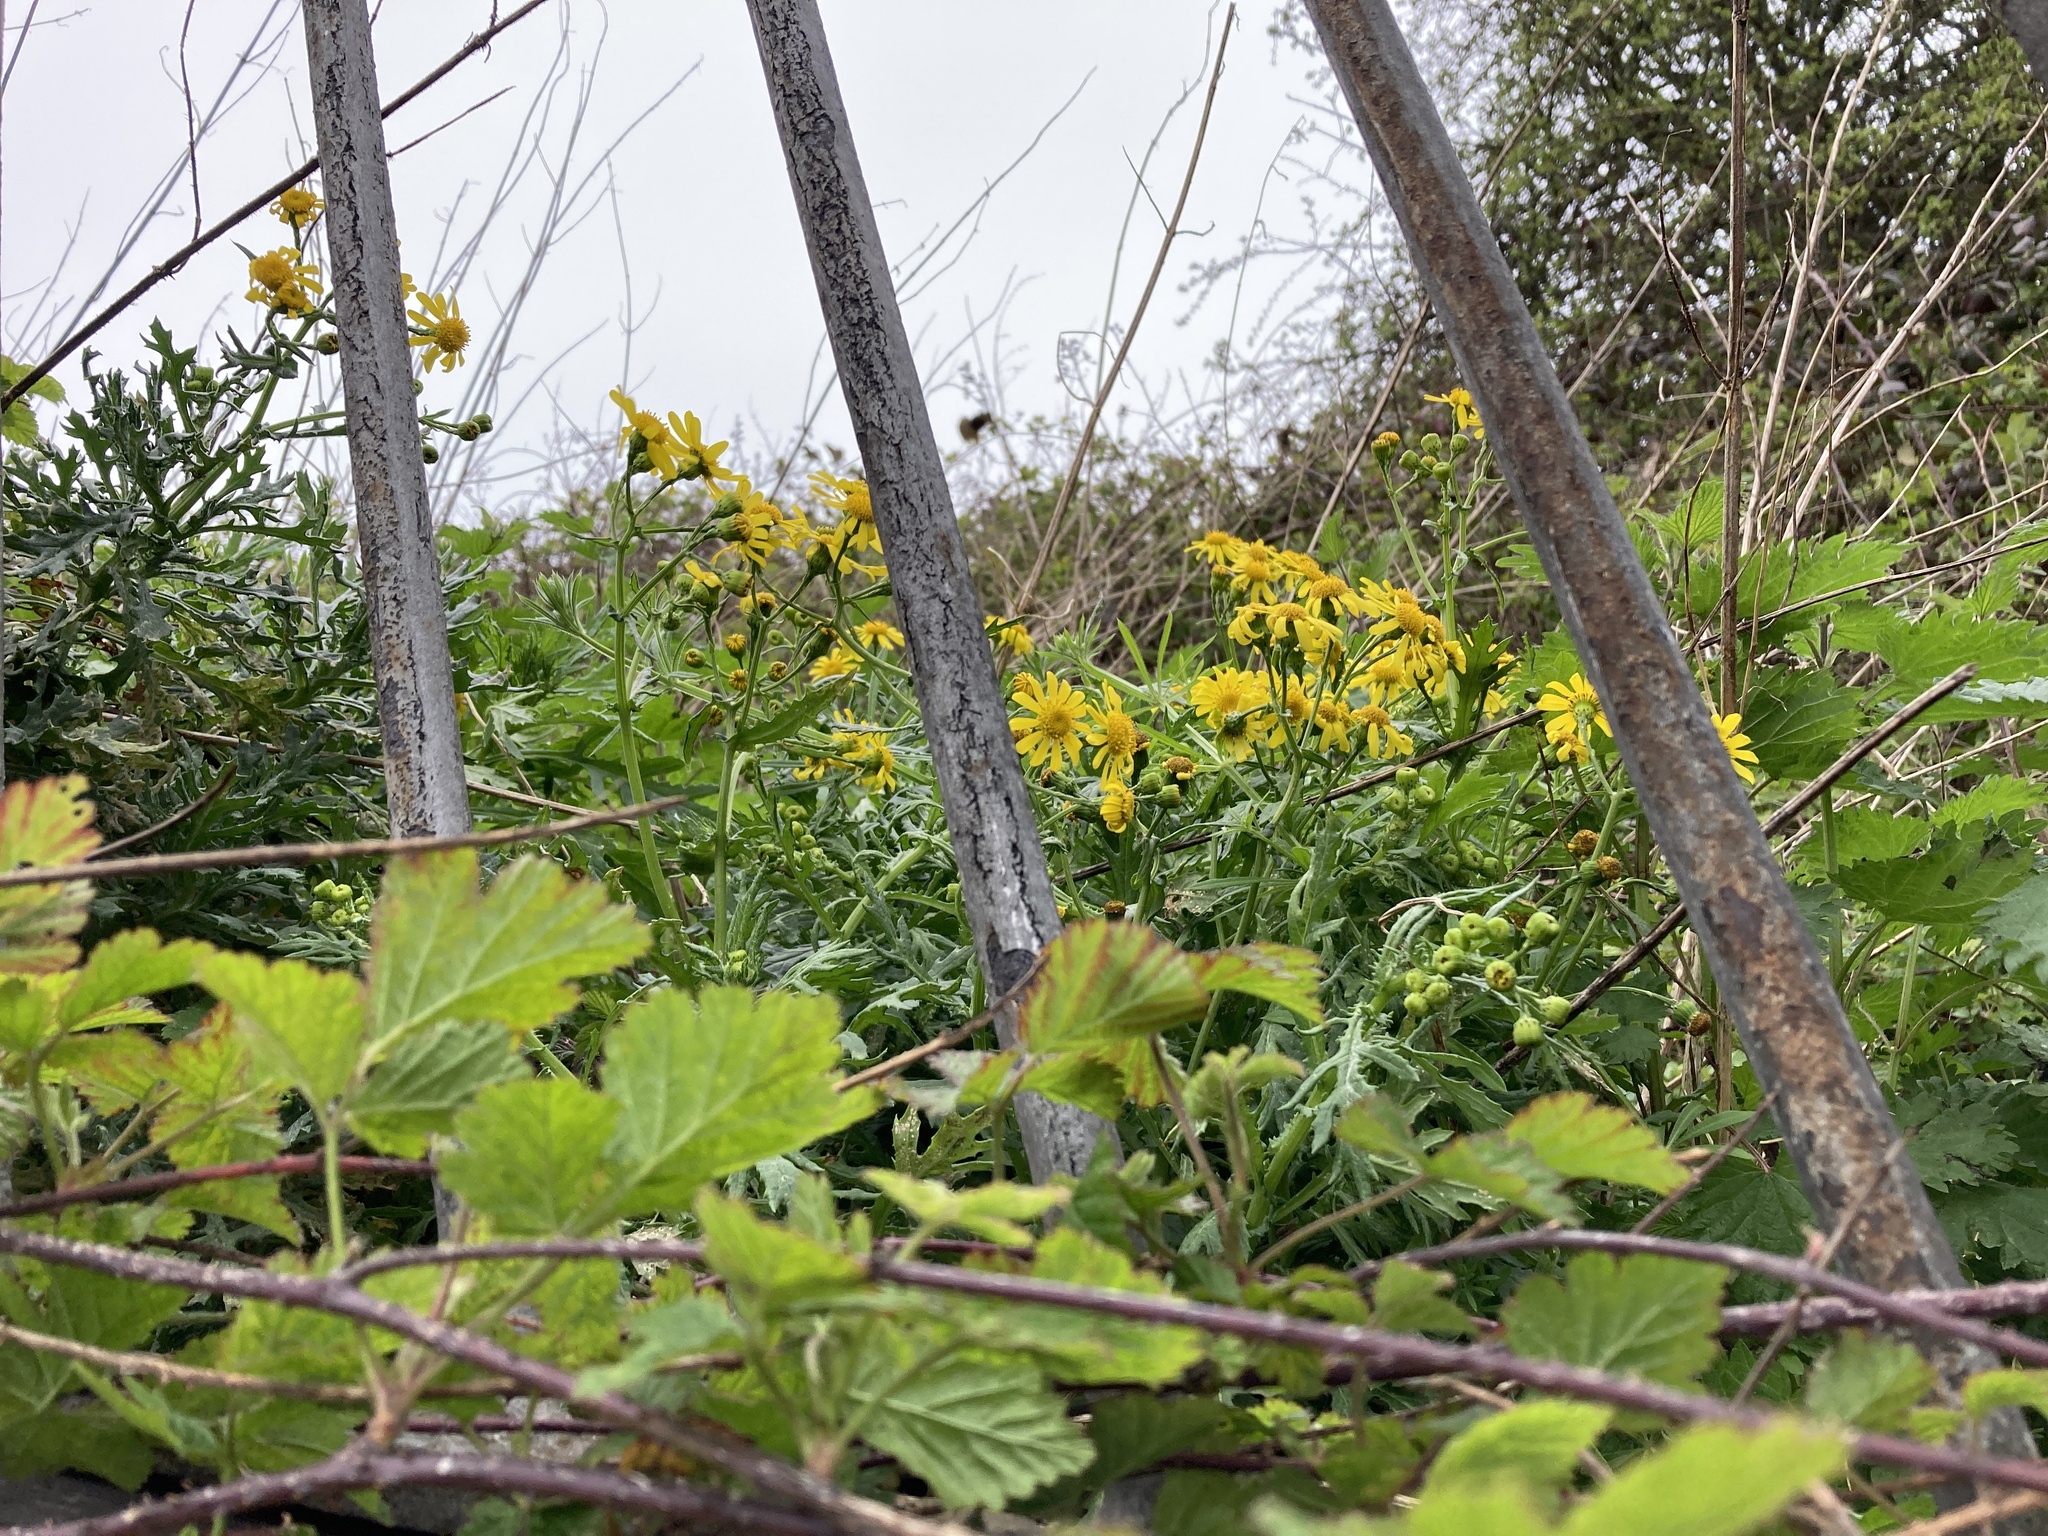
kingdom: Plantae
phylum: Tracheophyta
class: Magnoliopsida
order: Asterales
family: Asteraceae
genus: Senecio
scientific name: Senecio squalidus
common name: Oxford ragwort
